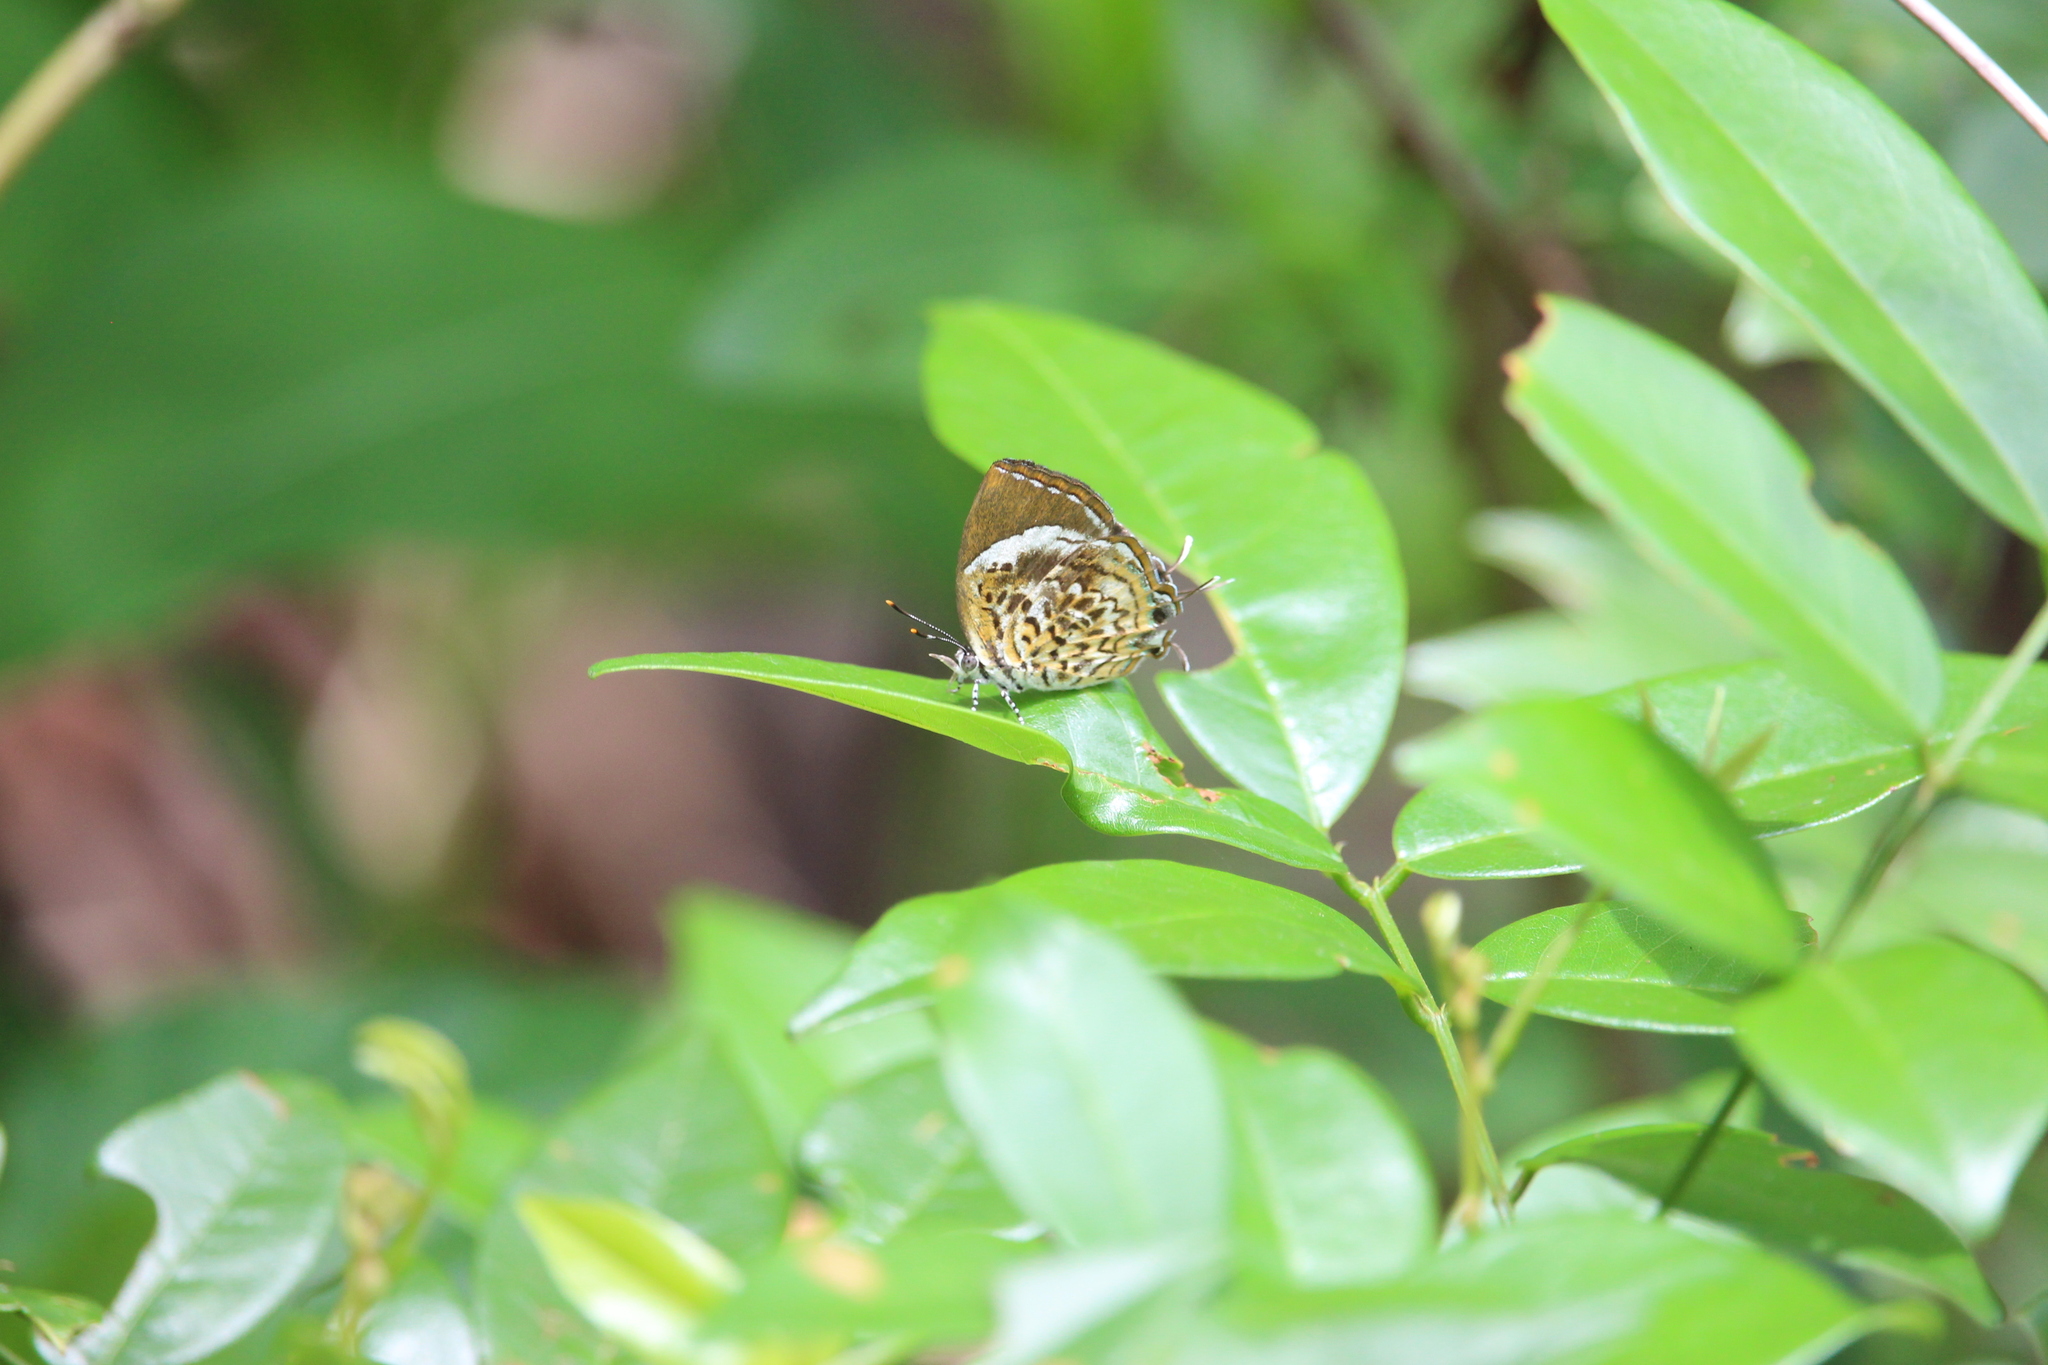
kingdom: Animalia
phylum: Arthropoda
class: Insecta
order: Lepidoptera
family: Lycaenidae
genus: Rathinda
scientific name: Rathinda amor
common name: Monkey puzzle
